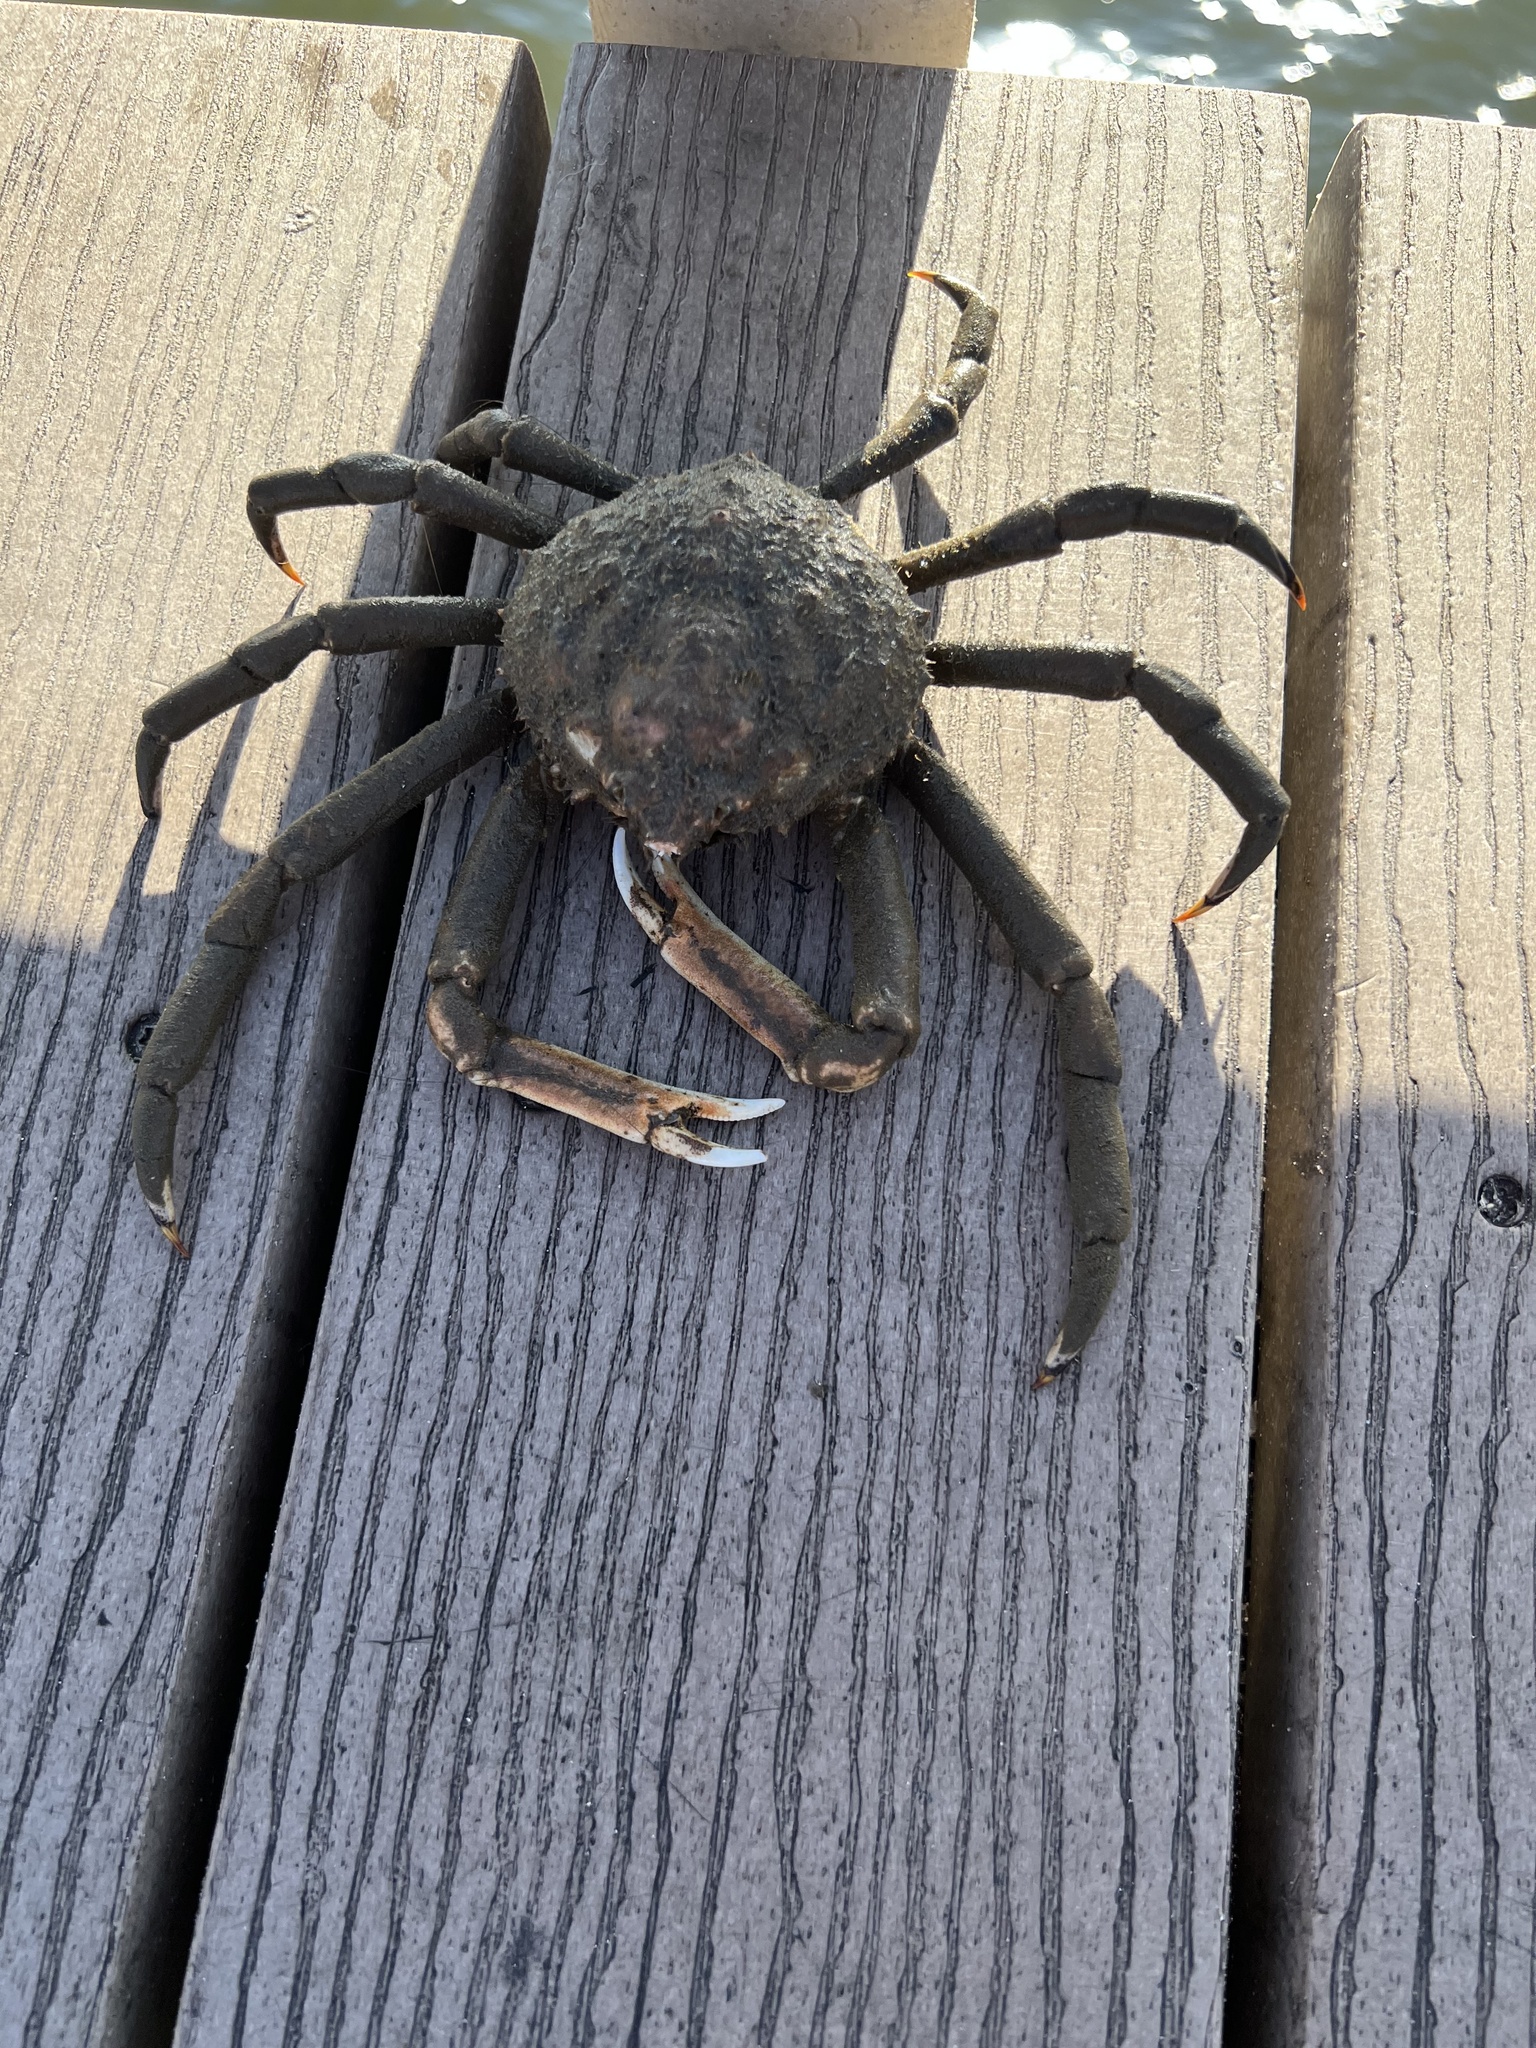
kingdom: Animalia
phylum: Arthropoda
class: Malacostraca
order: Decapoda
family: Epialtidae
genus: Libinia
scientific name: Libinia emarginata
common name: Common spider crab
